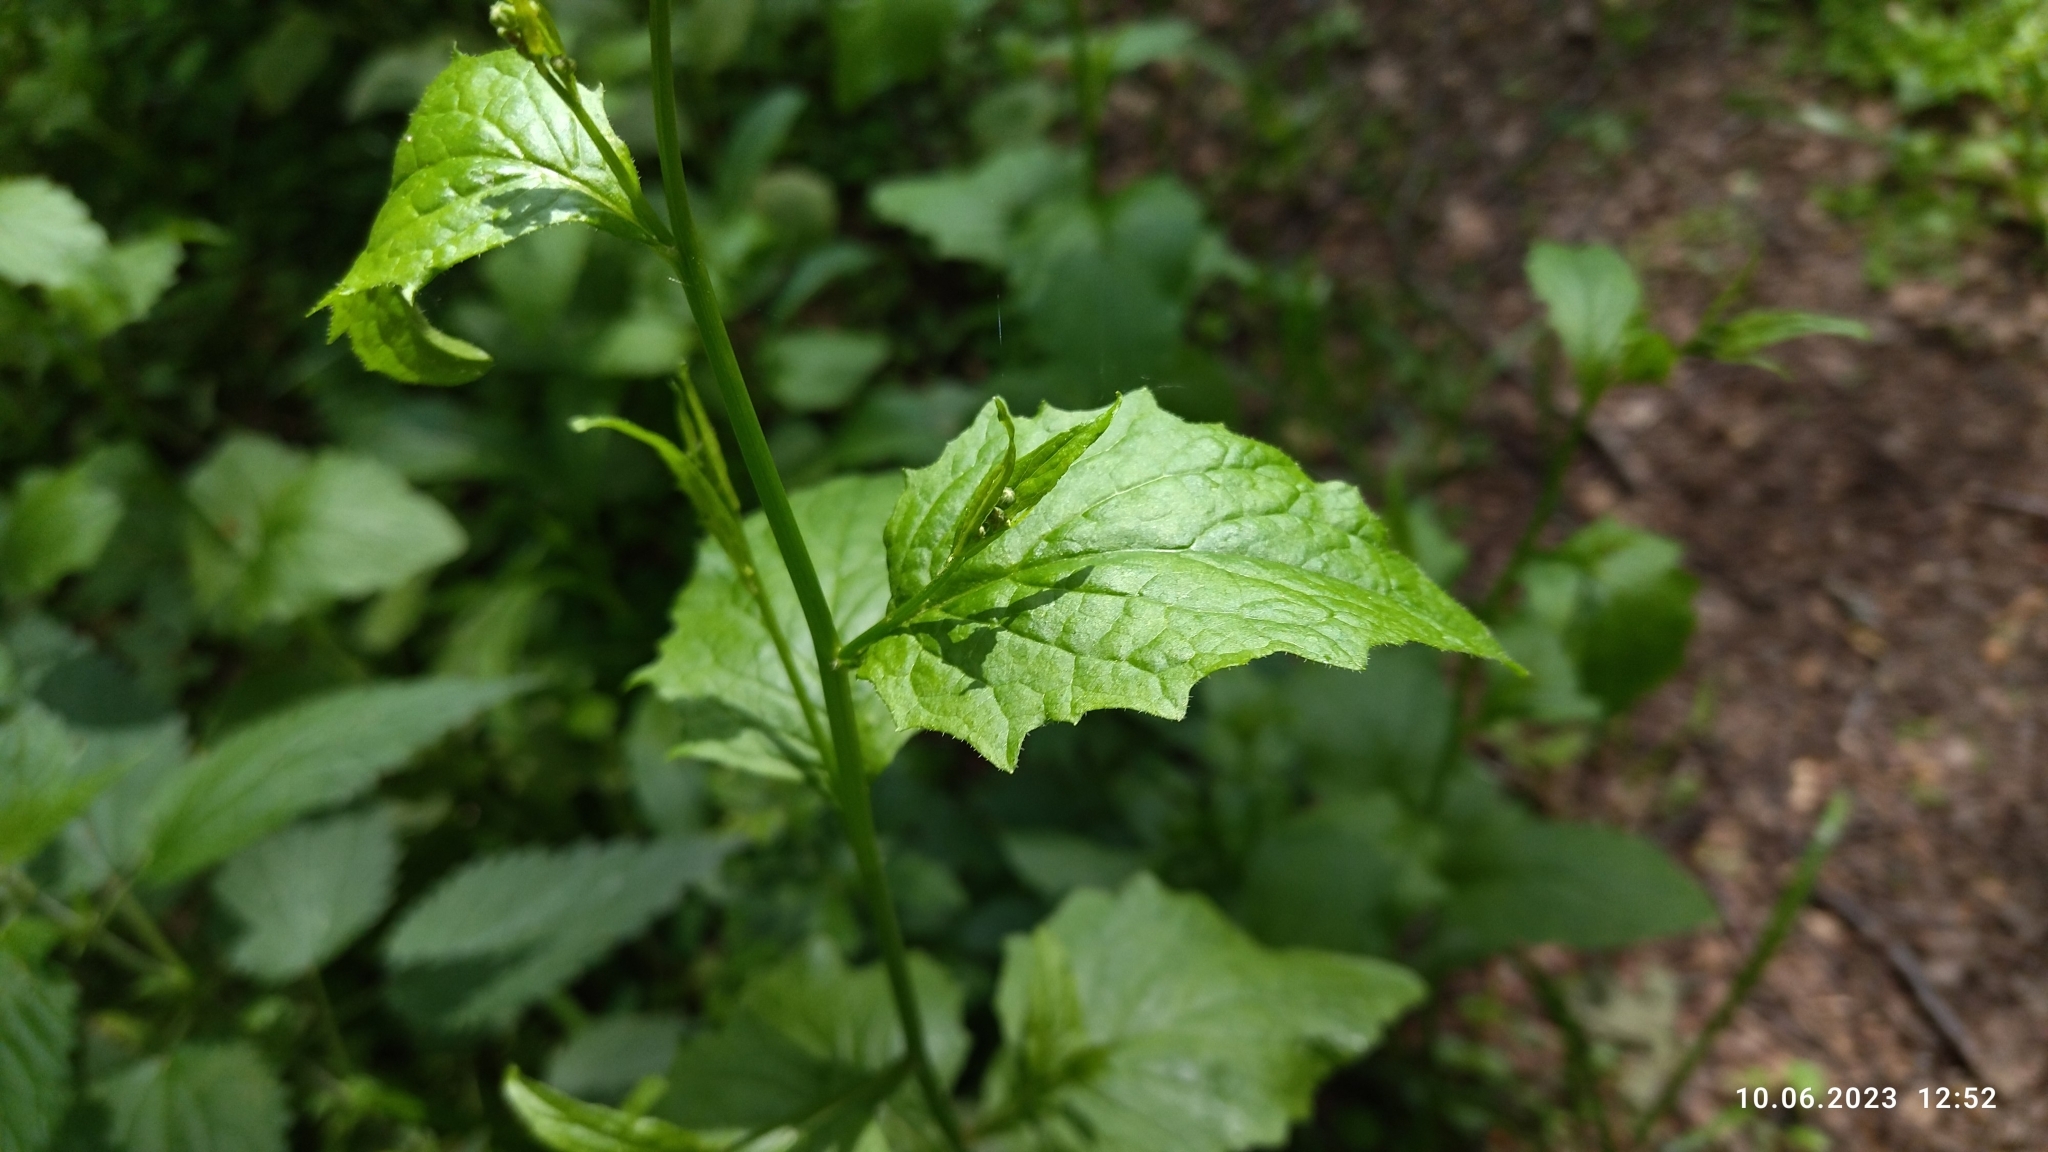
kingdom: Plantae
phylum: Tracheophyta
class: Magnoliopsida
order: Asterales
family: Asteraceae
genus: Lapsana
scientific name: Lapsana communis
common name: Nipplewort
